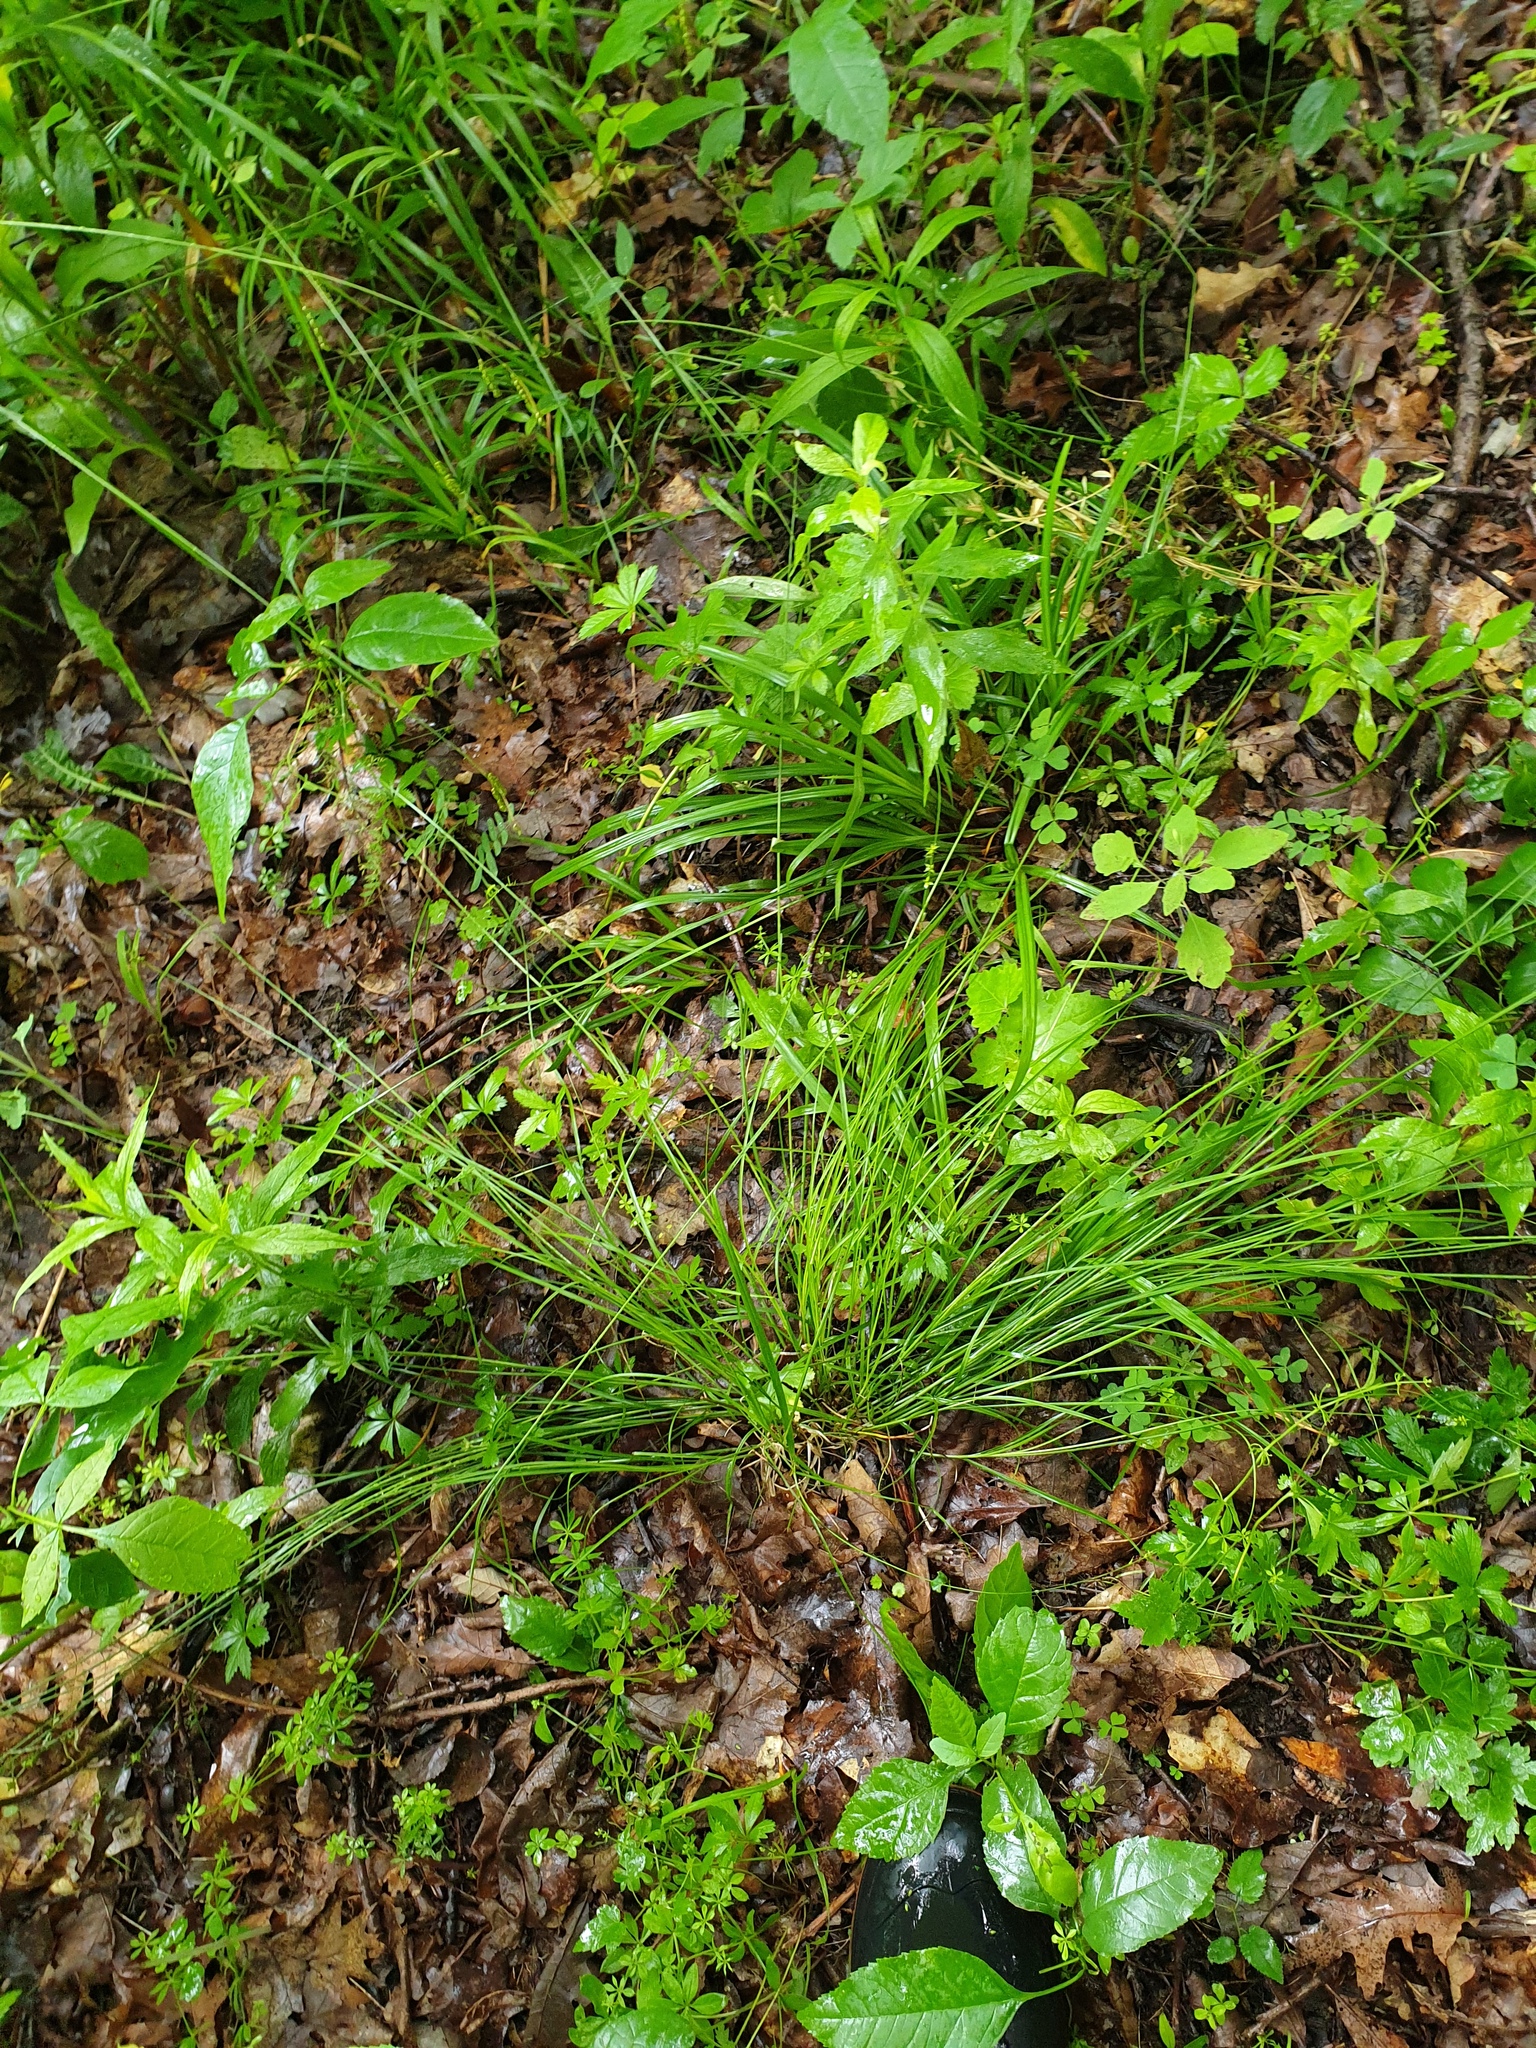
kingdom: Plantae
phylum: Tracheophyta
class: Liliopsida
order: Poales
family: Cyperaceae
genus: Carex
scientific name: Carex rosea
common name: Curly-styled wood sedge
